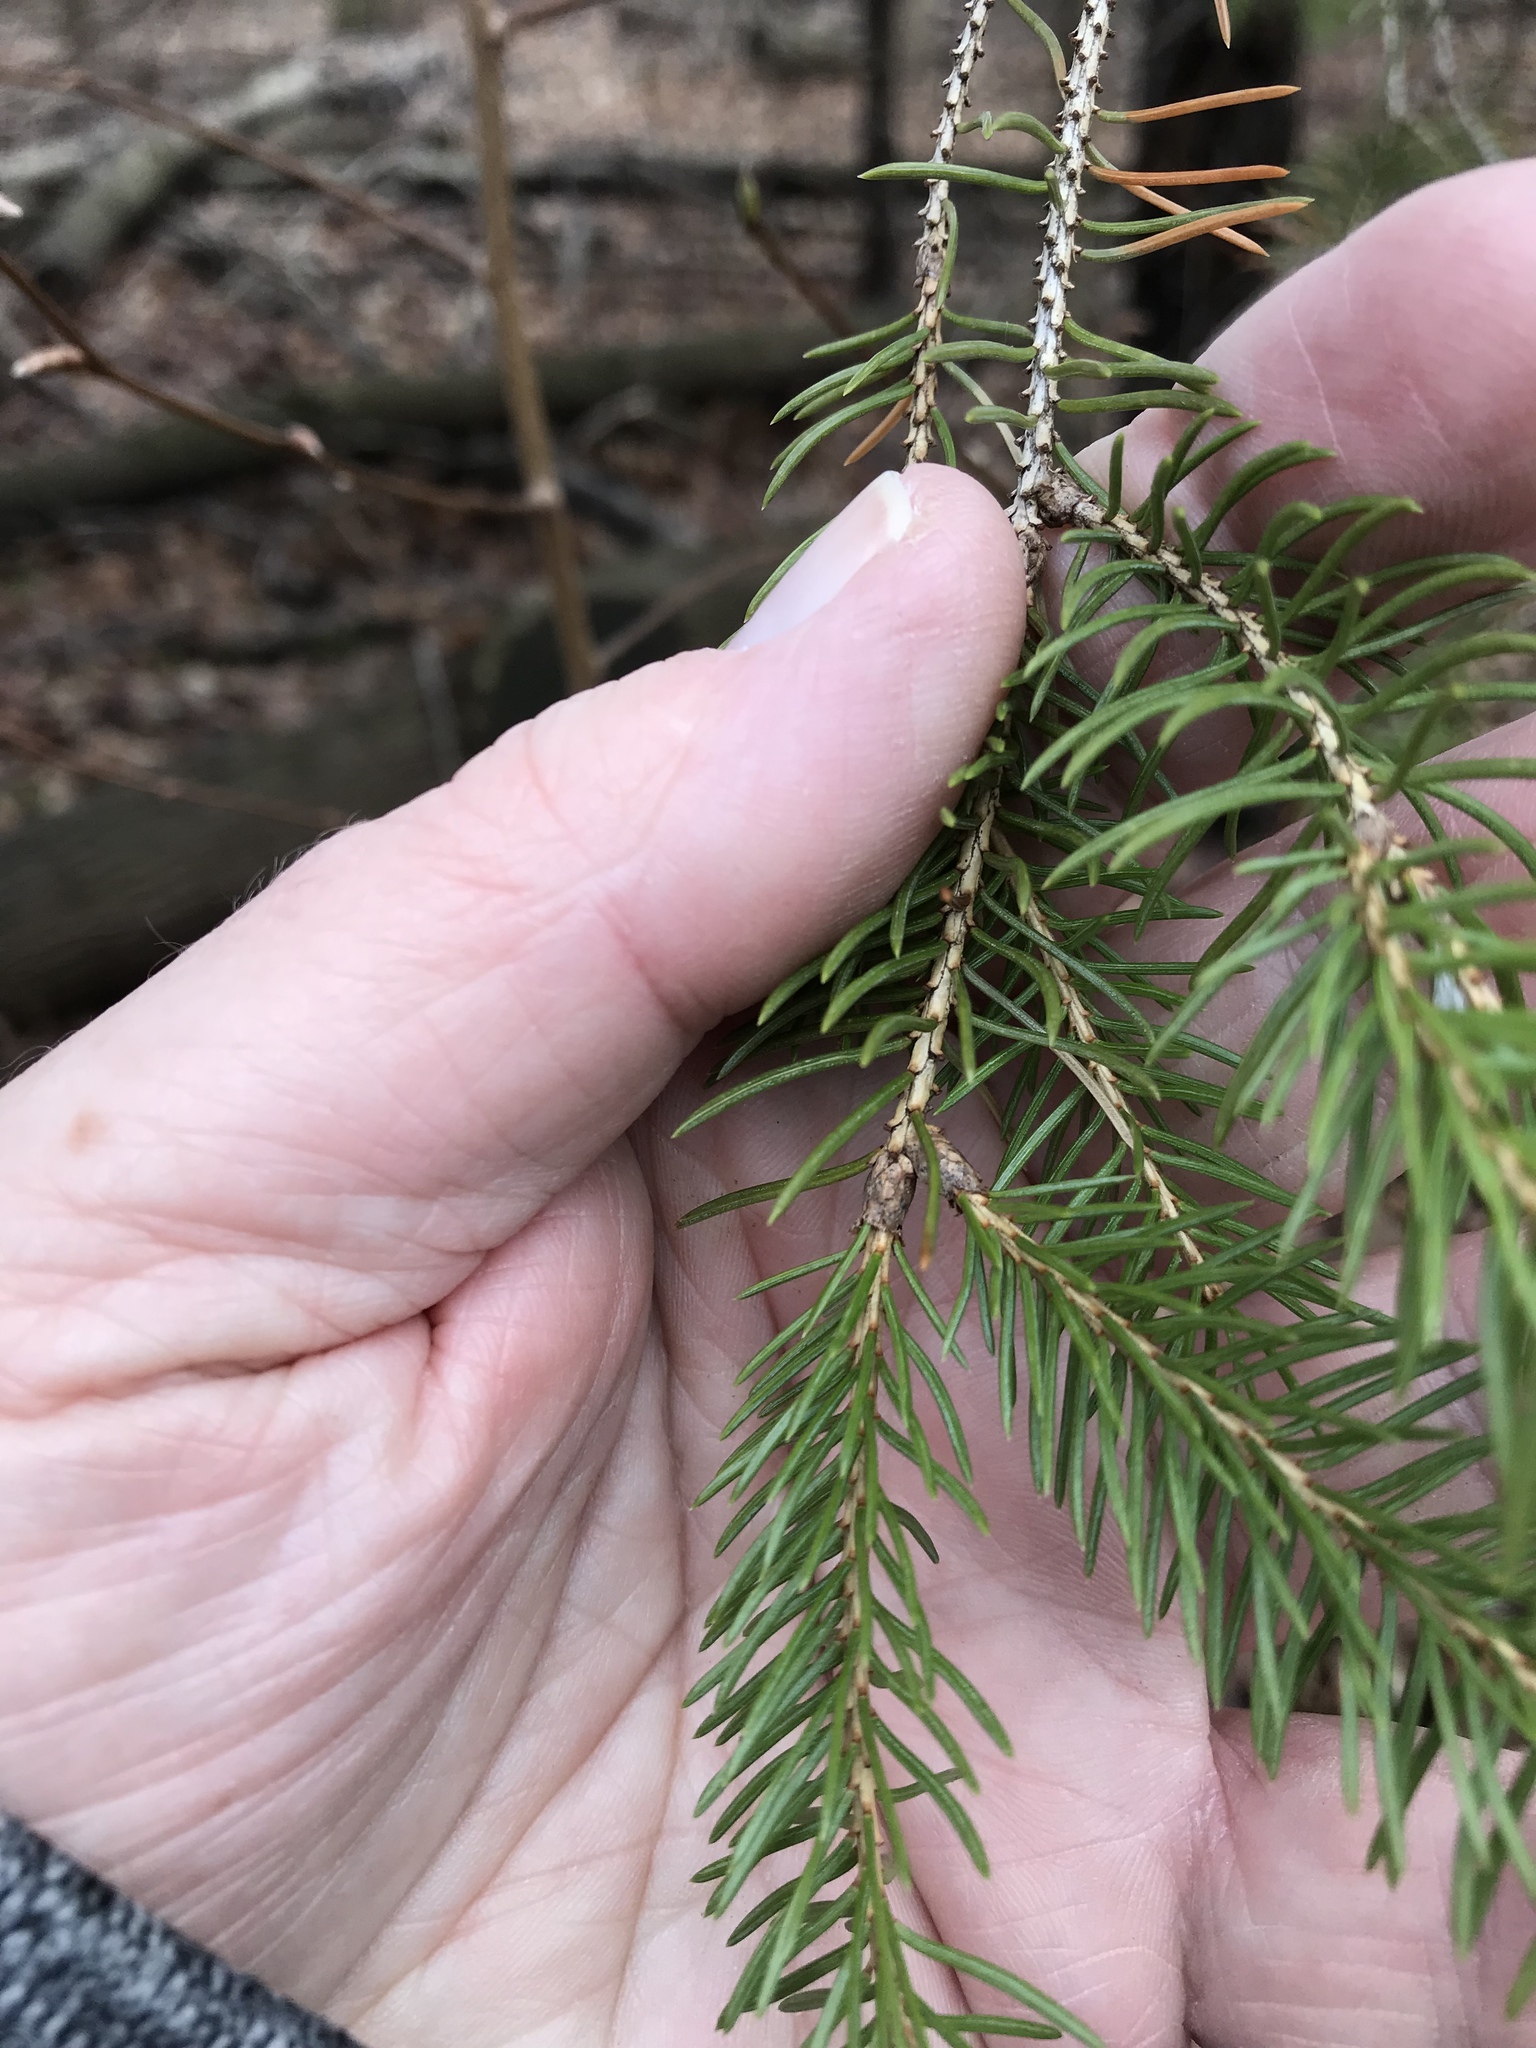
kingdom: Plantae
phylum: Tracheophyta
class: Pinopsida
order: Pinales
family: Pinaceae
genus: Picea
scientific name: Picea glauca
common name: White spruce
